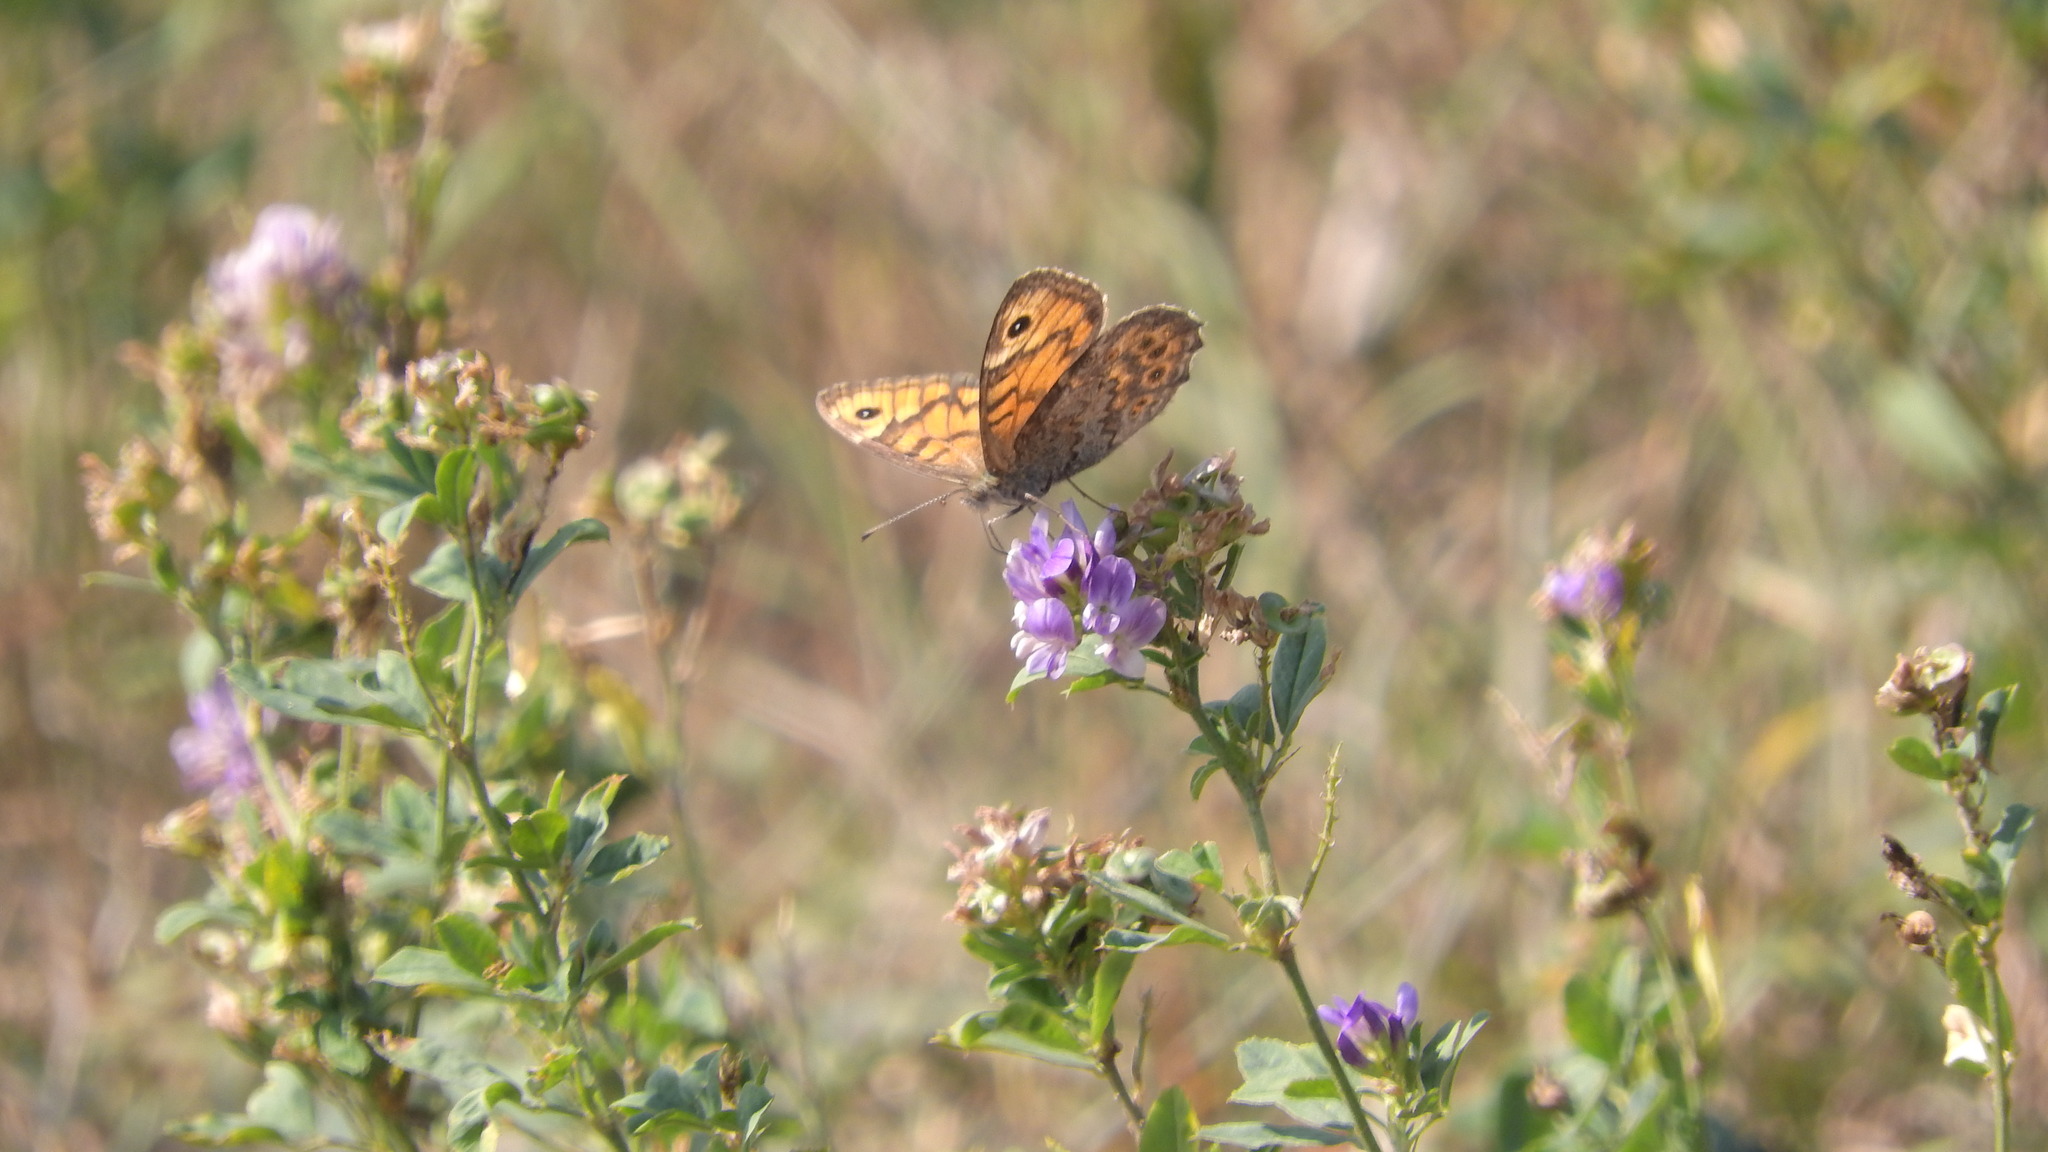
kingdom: Animalia
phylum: Arthropoda
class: Insecta
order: Lepidoptera
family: Nymphalidae
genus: Pararge
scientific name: Pararge Lasiommata megera
